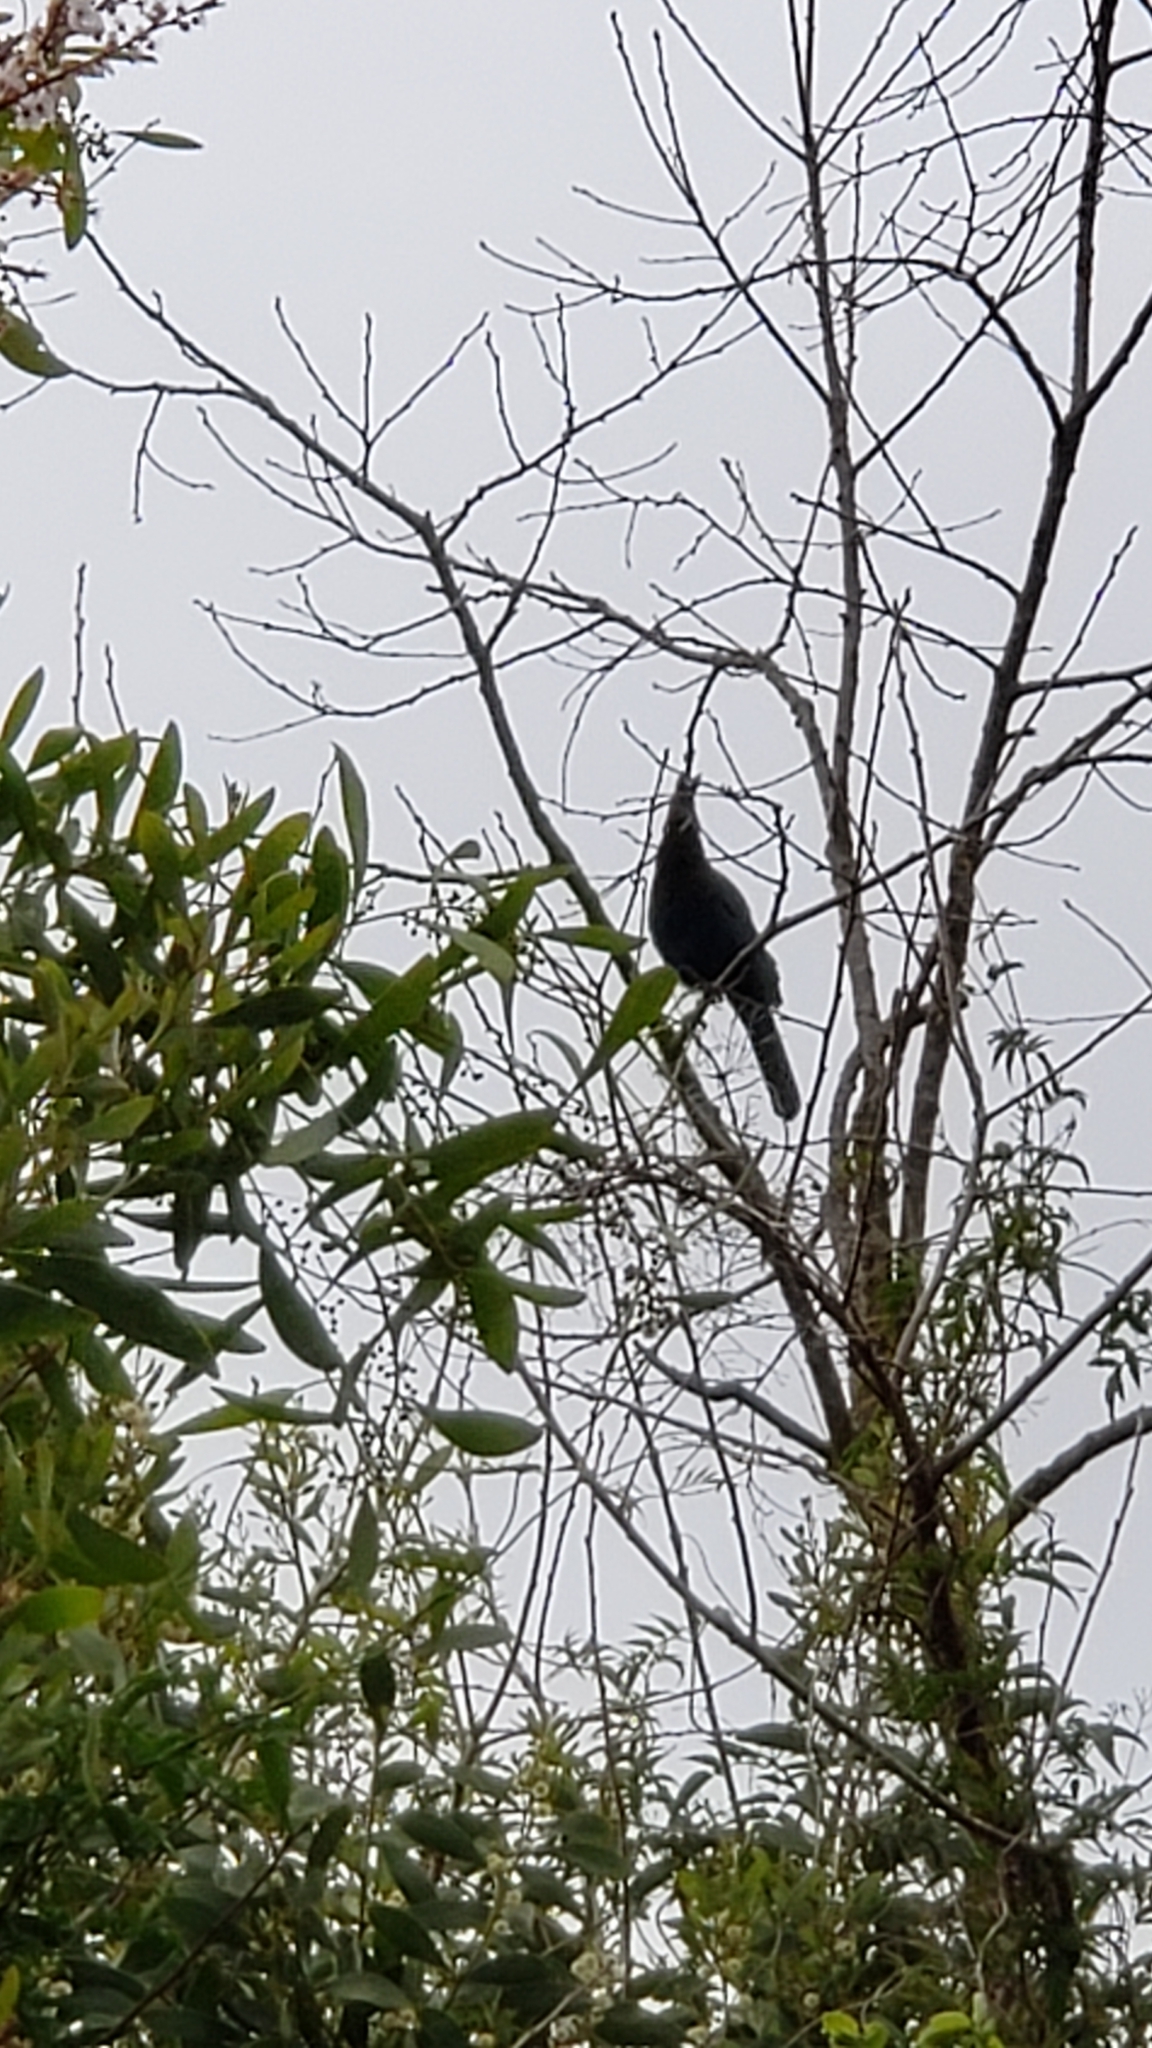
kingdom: Animalia
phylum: Chordata
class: Aves
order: Passeriformes
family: Corvidae
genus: Cyanocitta
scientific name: Cyanocitta stelleri
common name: Steller's jay
